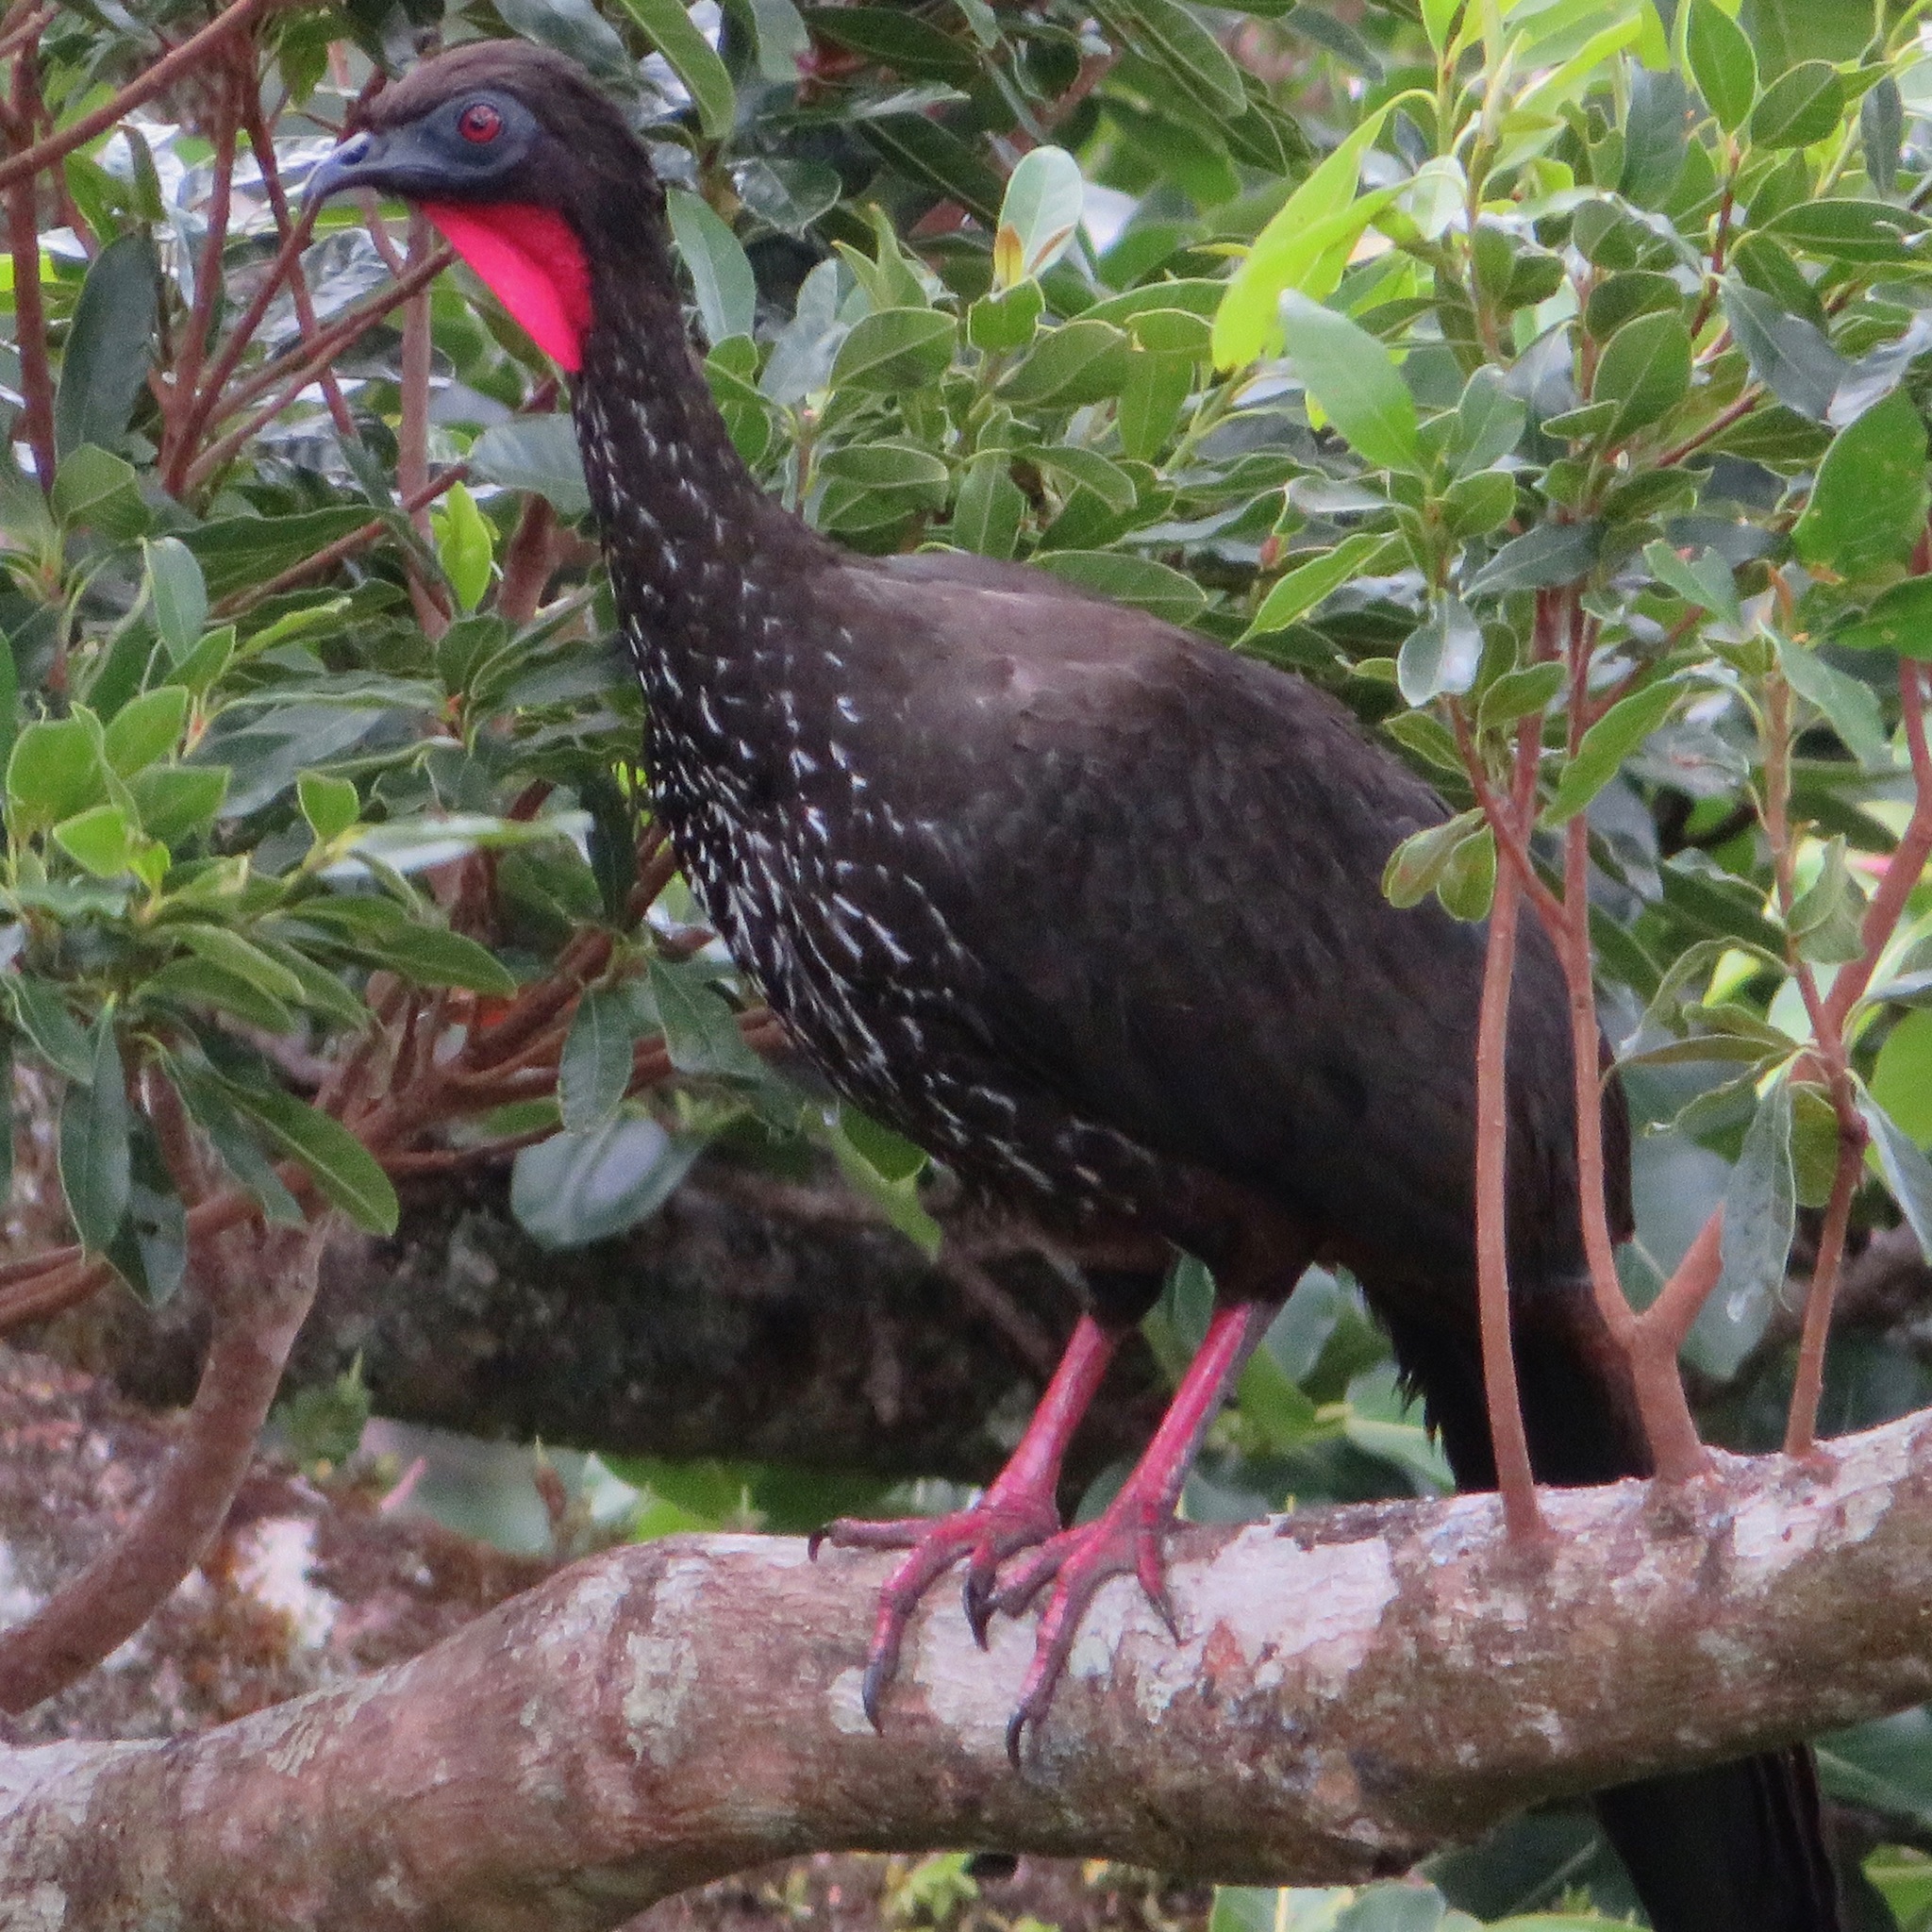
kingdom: Animalia
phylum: Chordata
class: Aves
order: Galliformes
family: Cracidae
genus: Penelope
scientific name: Penelope purpurascens
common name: Crested guan
